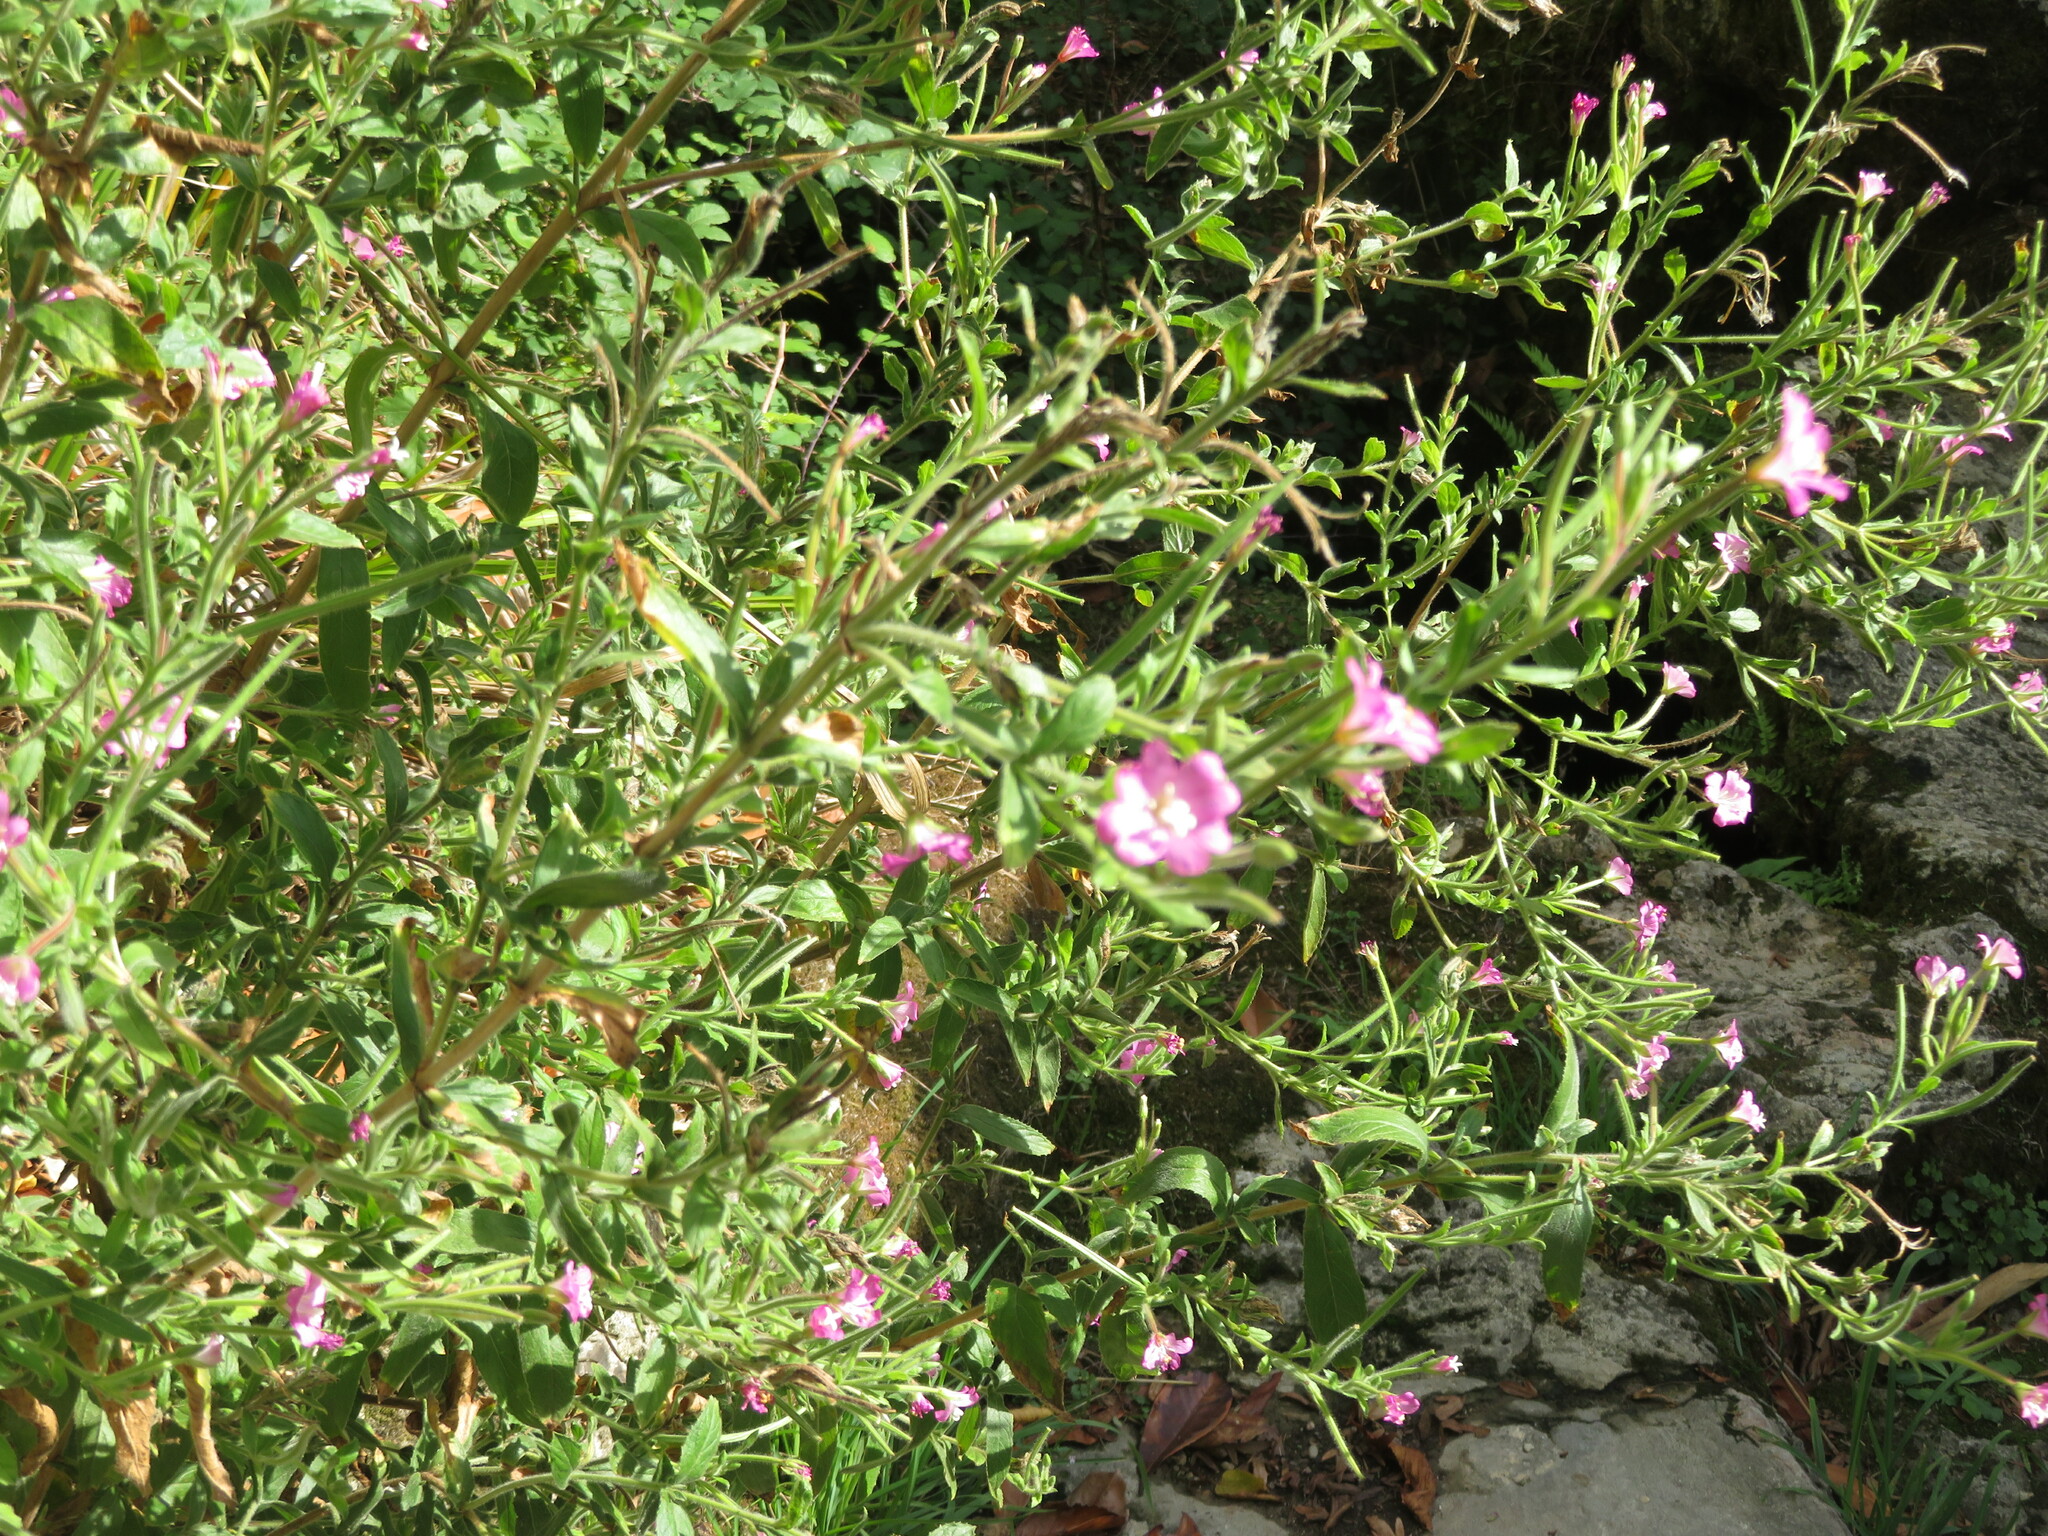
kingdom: Plantae
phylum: Tracheophyta
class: Magnoliopsida
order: Myrtales
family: Onagraceae
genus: Epilobium
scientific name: Epilobium hirsutum
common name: Great willowherb
